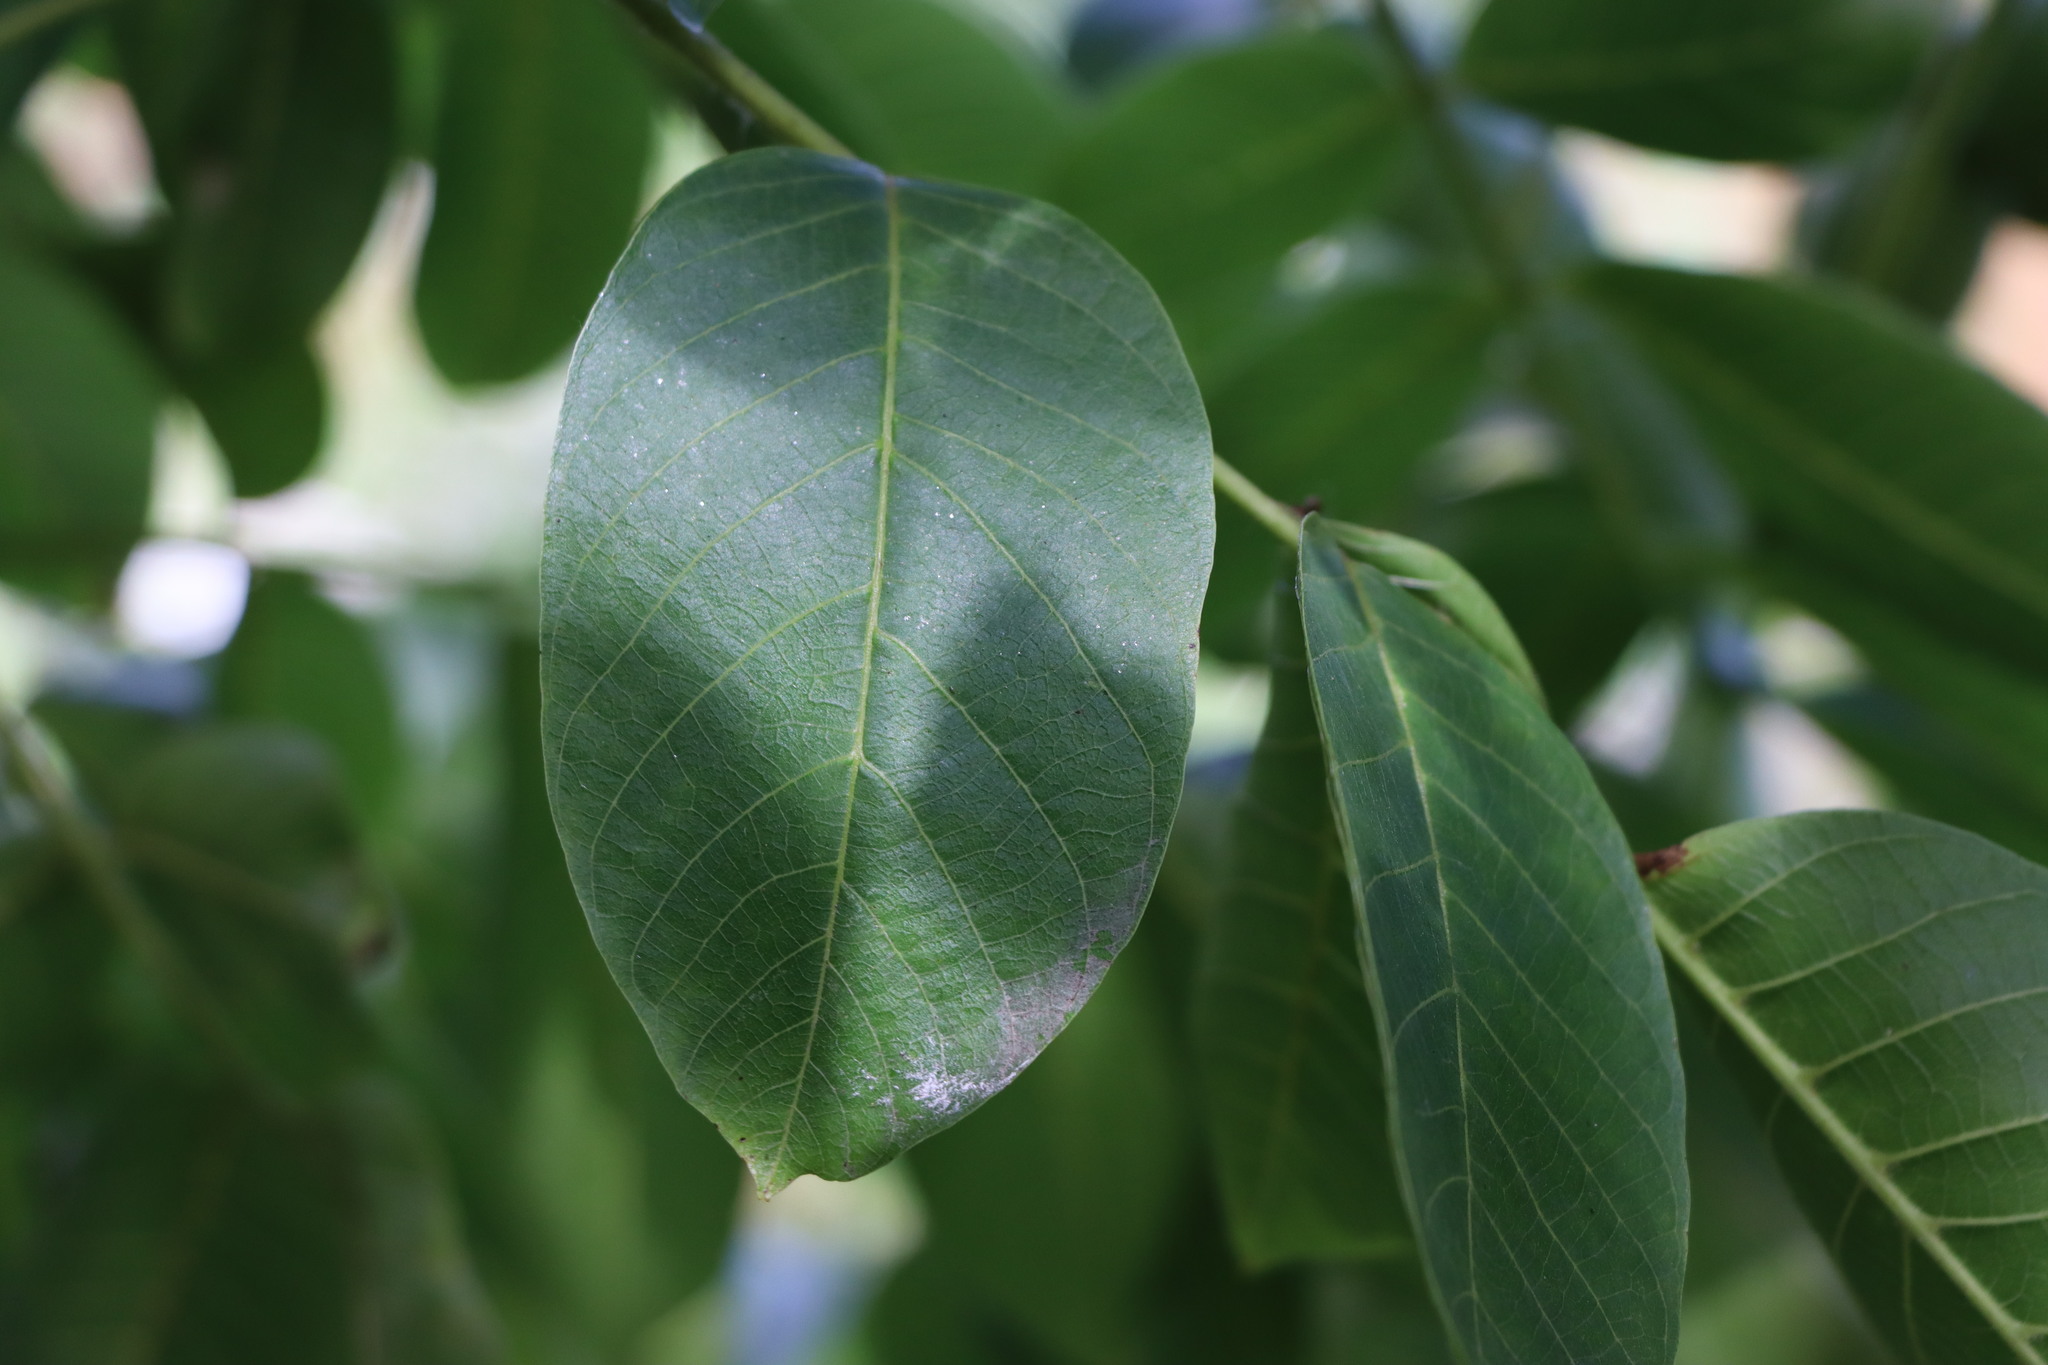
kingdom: Plantae
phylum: Tracheophyta
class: Magnoliopsida
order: Fagales
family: Juglandaceae
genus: Juglans
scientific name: Juglans regia
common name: Walnut
